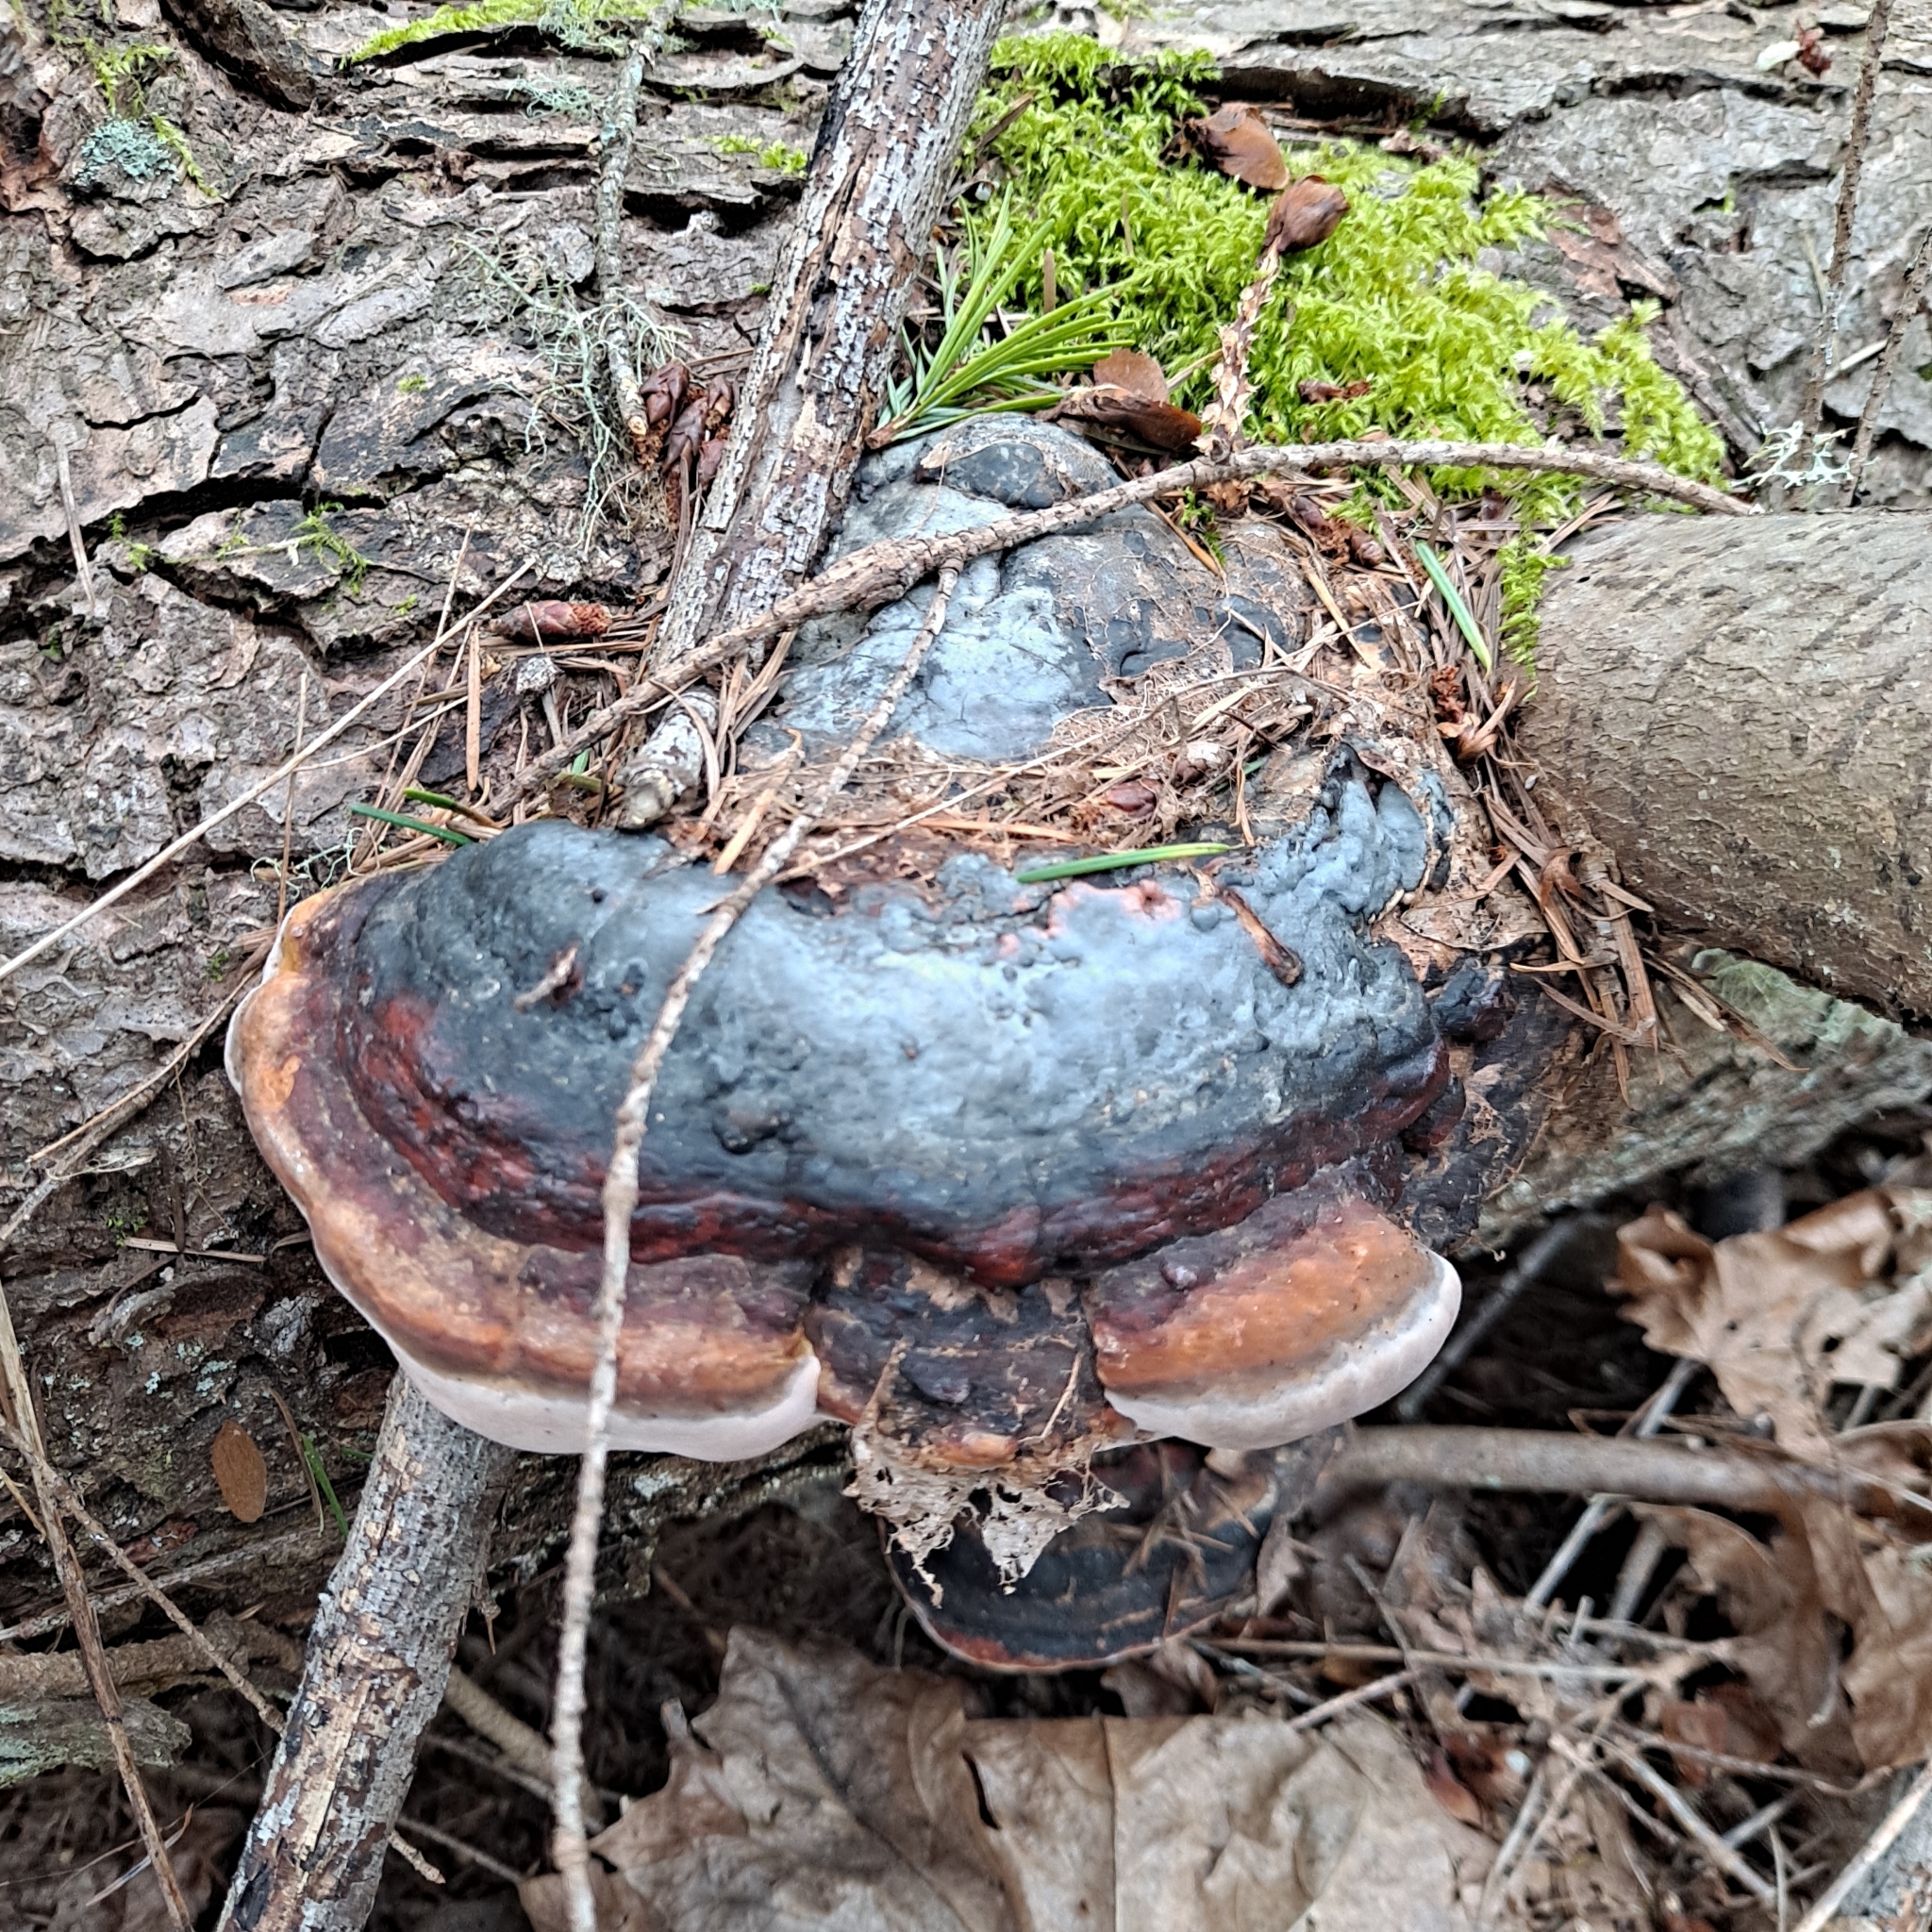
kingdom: Fungi
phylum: Basidiomycota
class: Agaricomycetes
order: Polyporales
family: Fomitopsidaceae
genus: Fomitopsis
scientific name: Fomitopsis mounceae
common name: Northern red belt
